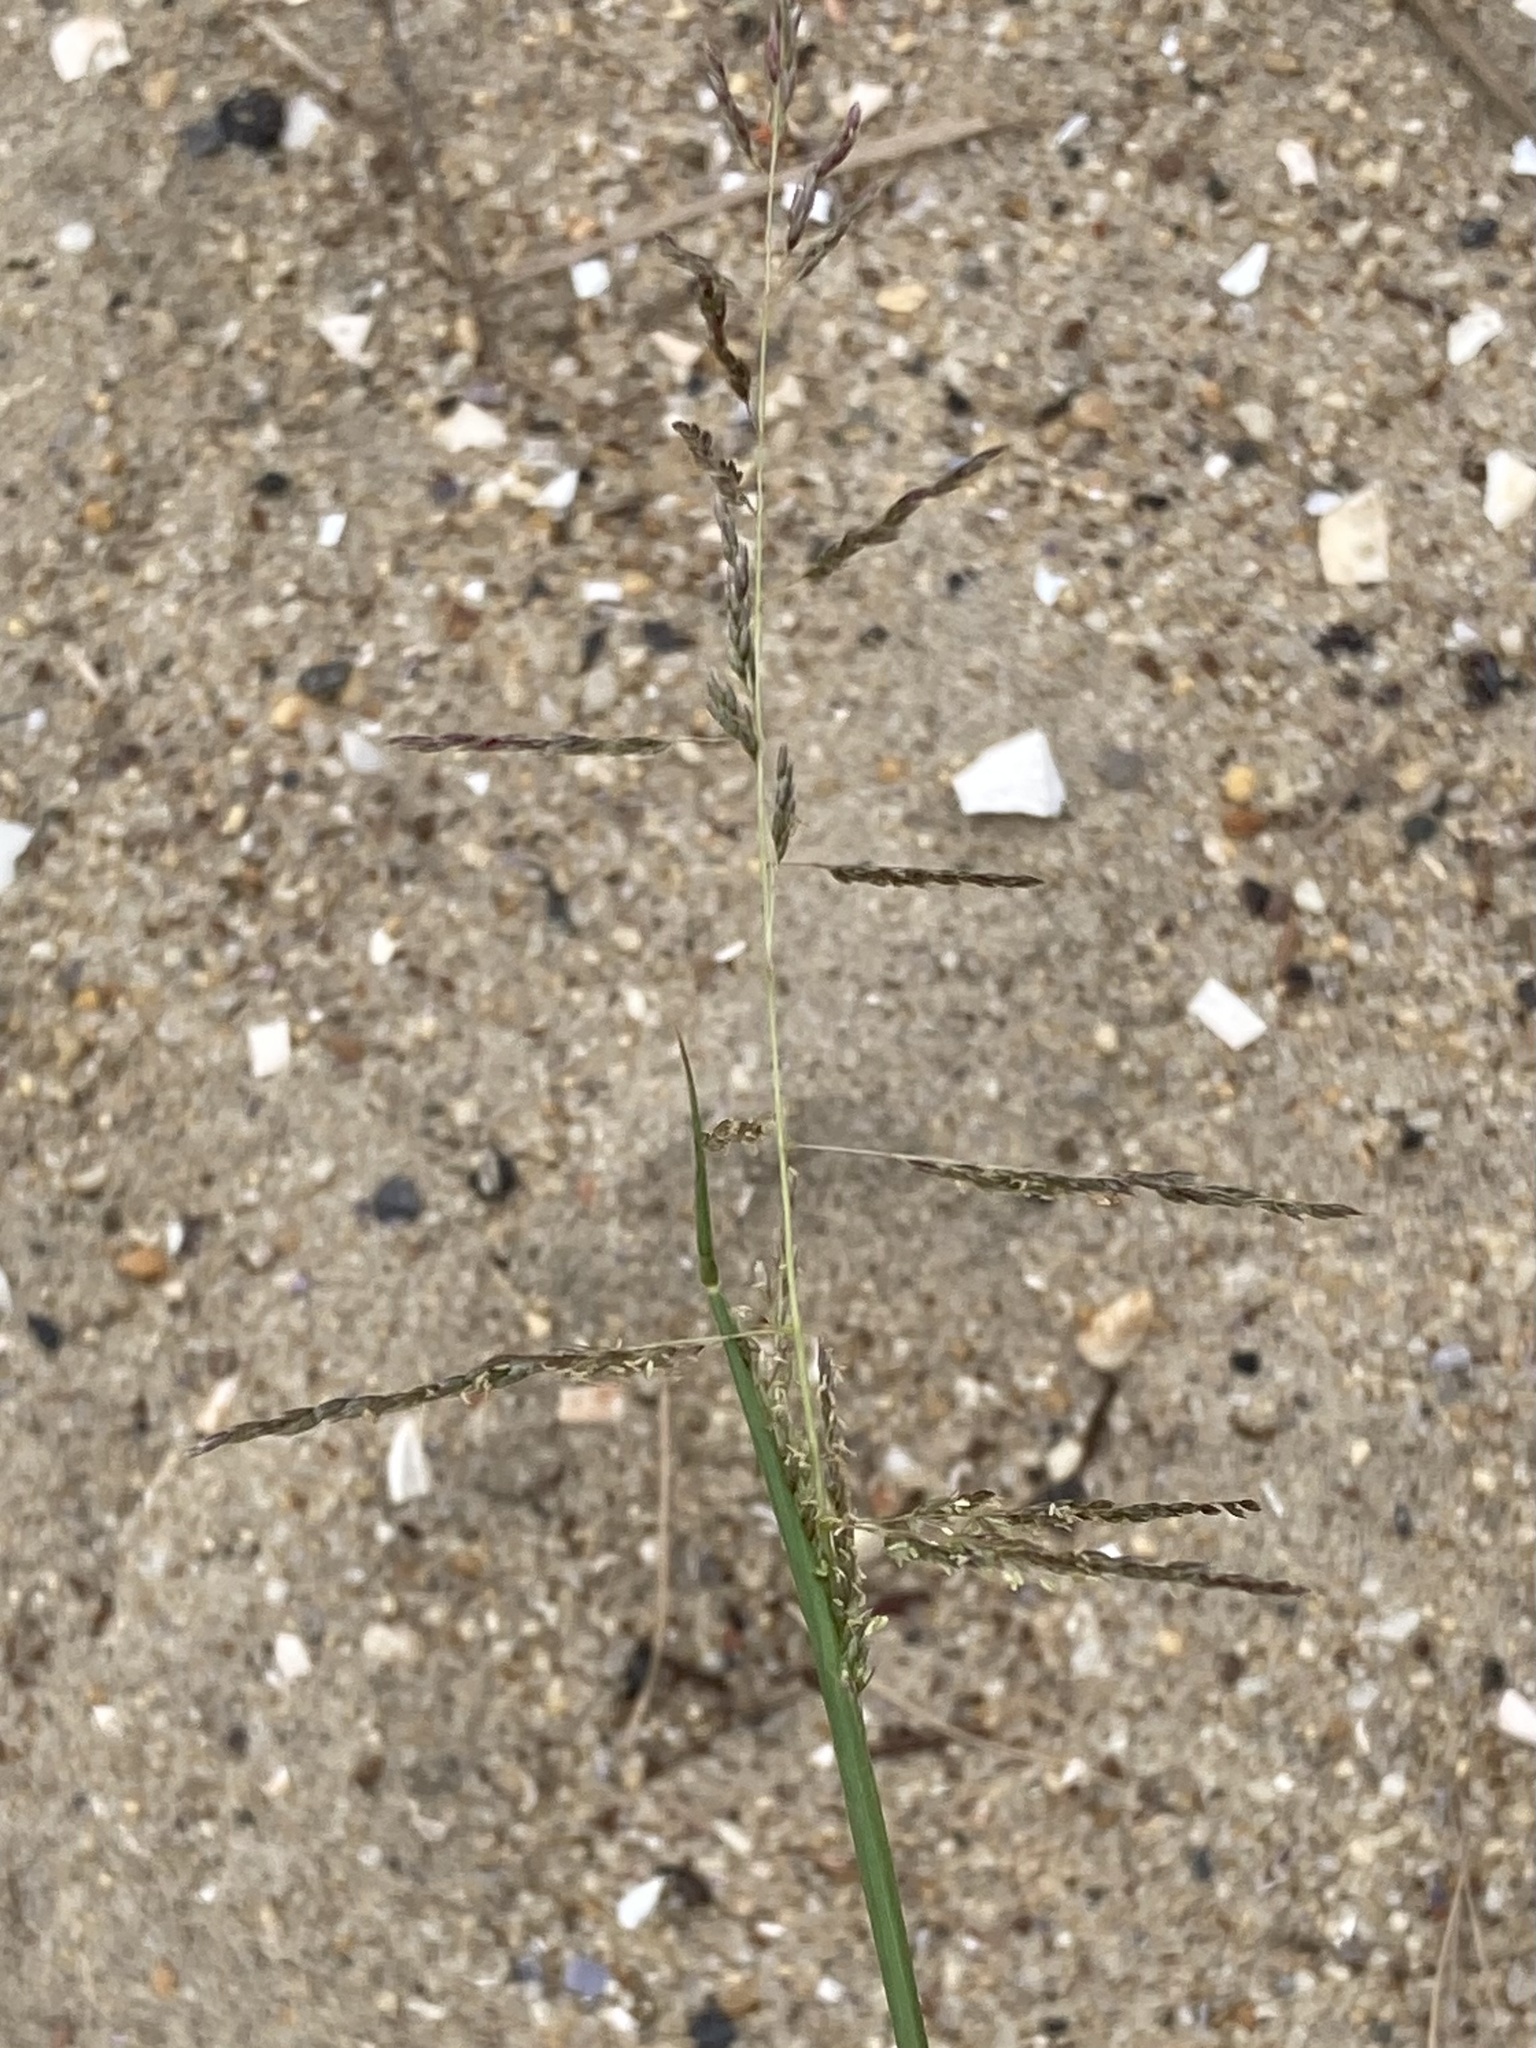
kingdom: Plantae
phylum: Tracheophyta
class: Liliopsida
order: Poales
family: Poaceae
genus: Sporobolus
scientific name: Sporobolus cryptandrus
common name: Sand dropseed
